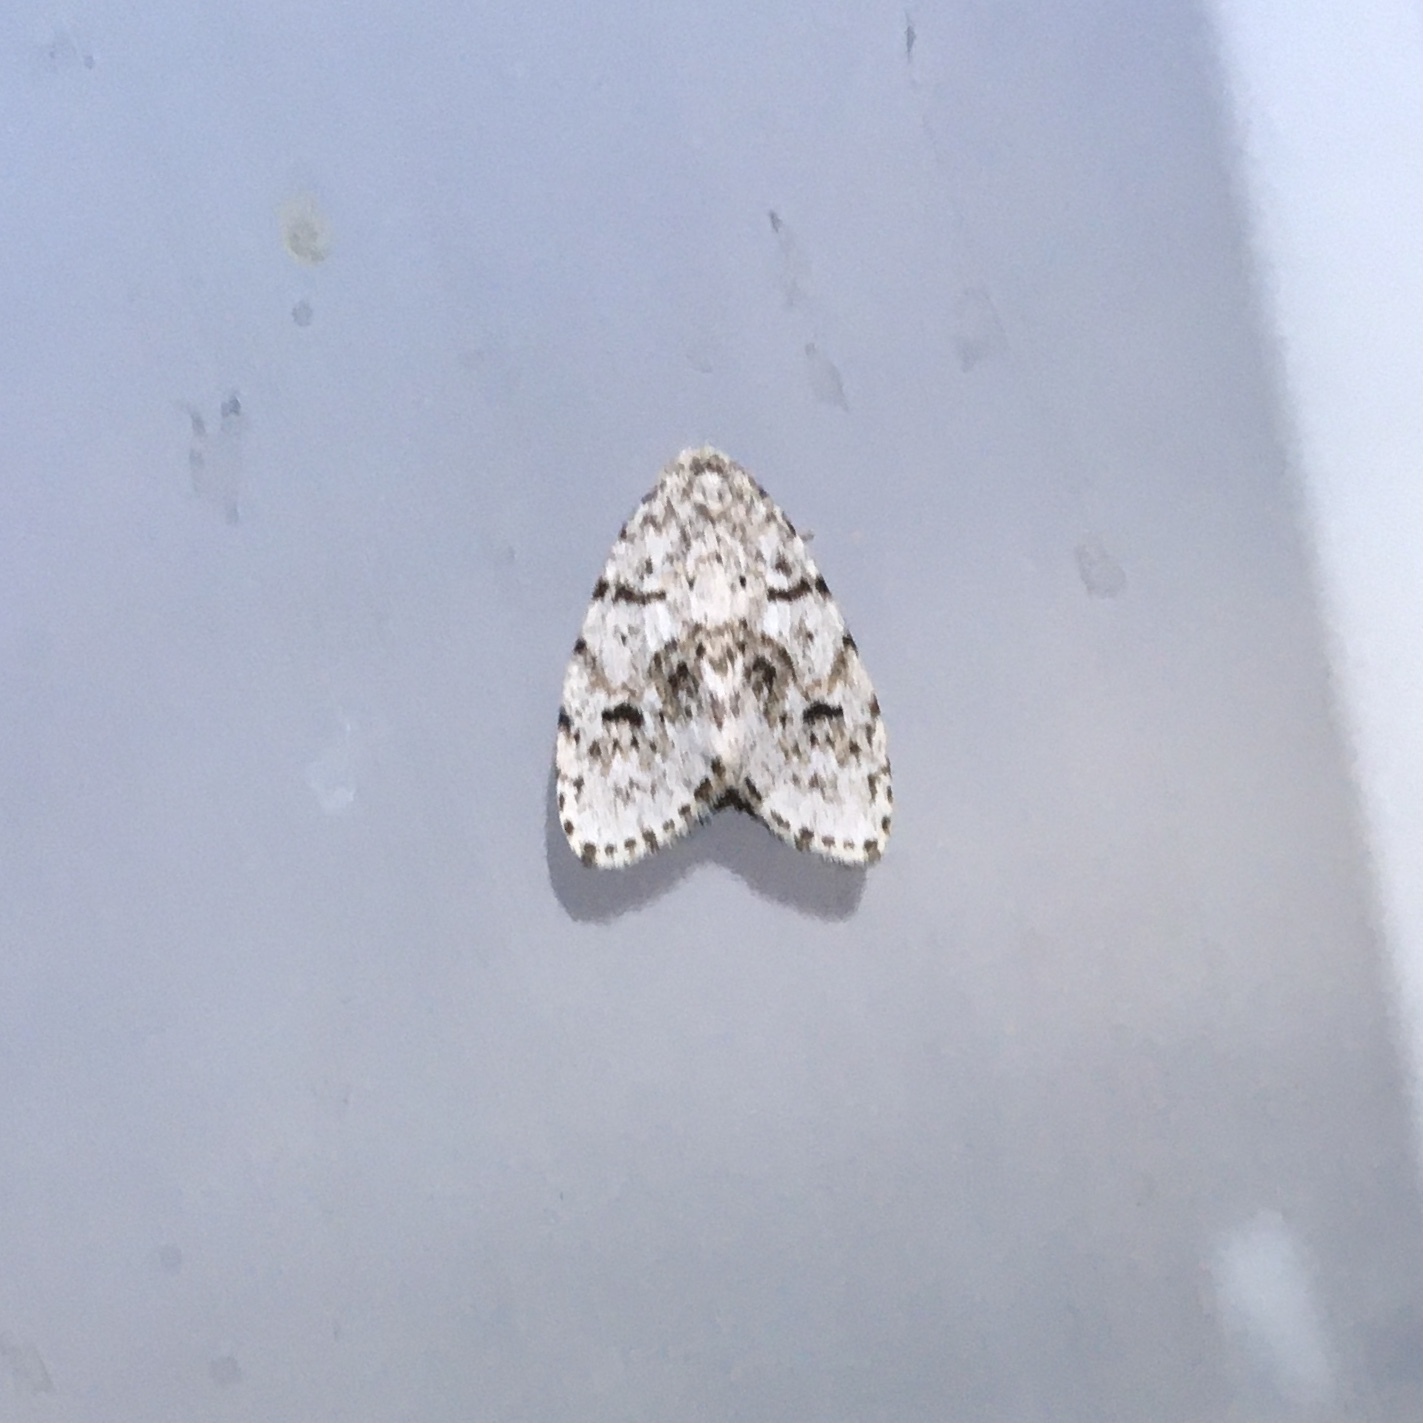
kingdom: Animalia
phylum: Arthropoda
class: Insecta
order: Lepidoptera
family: Erebidae
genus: Clemensia
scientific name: Clemensia umbrata
